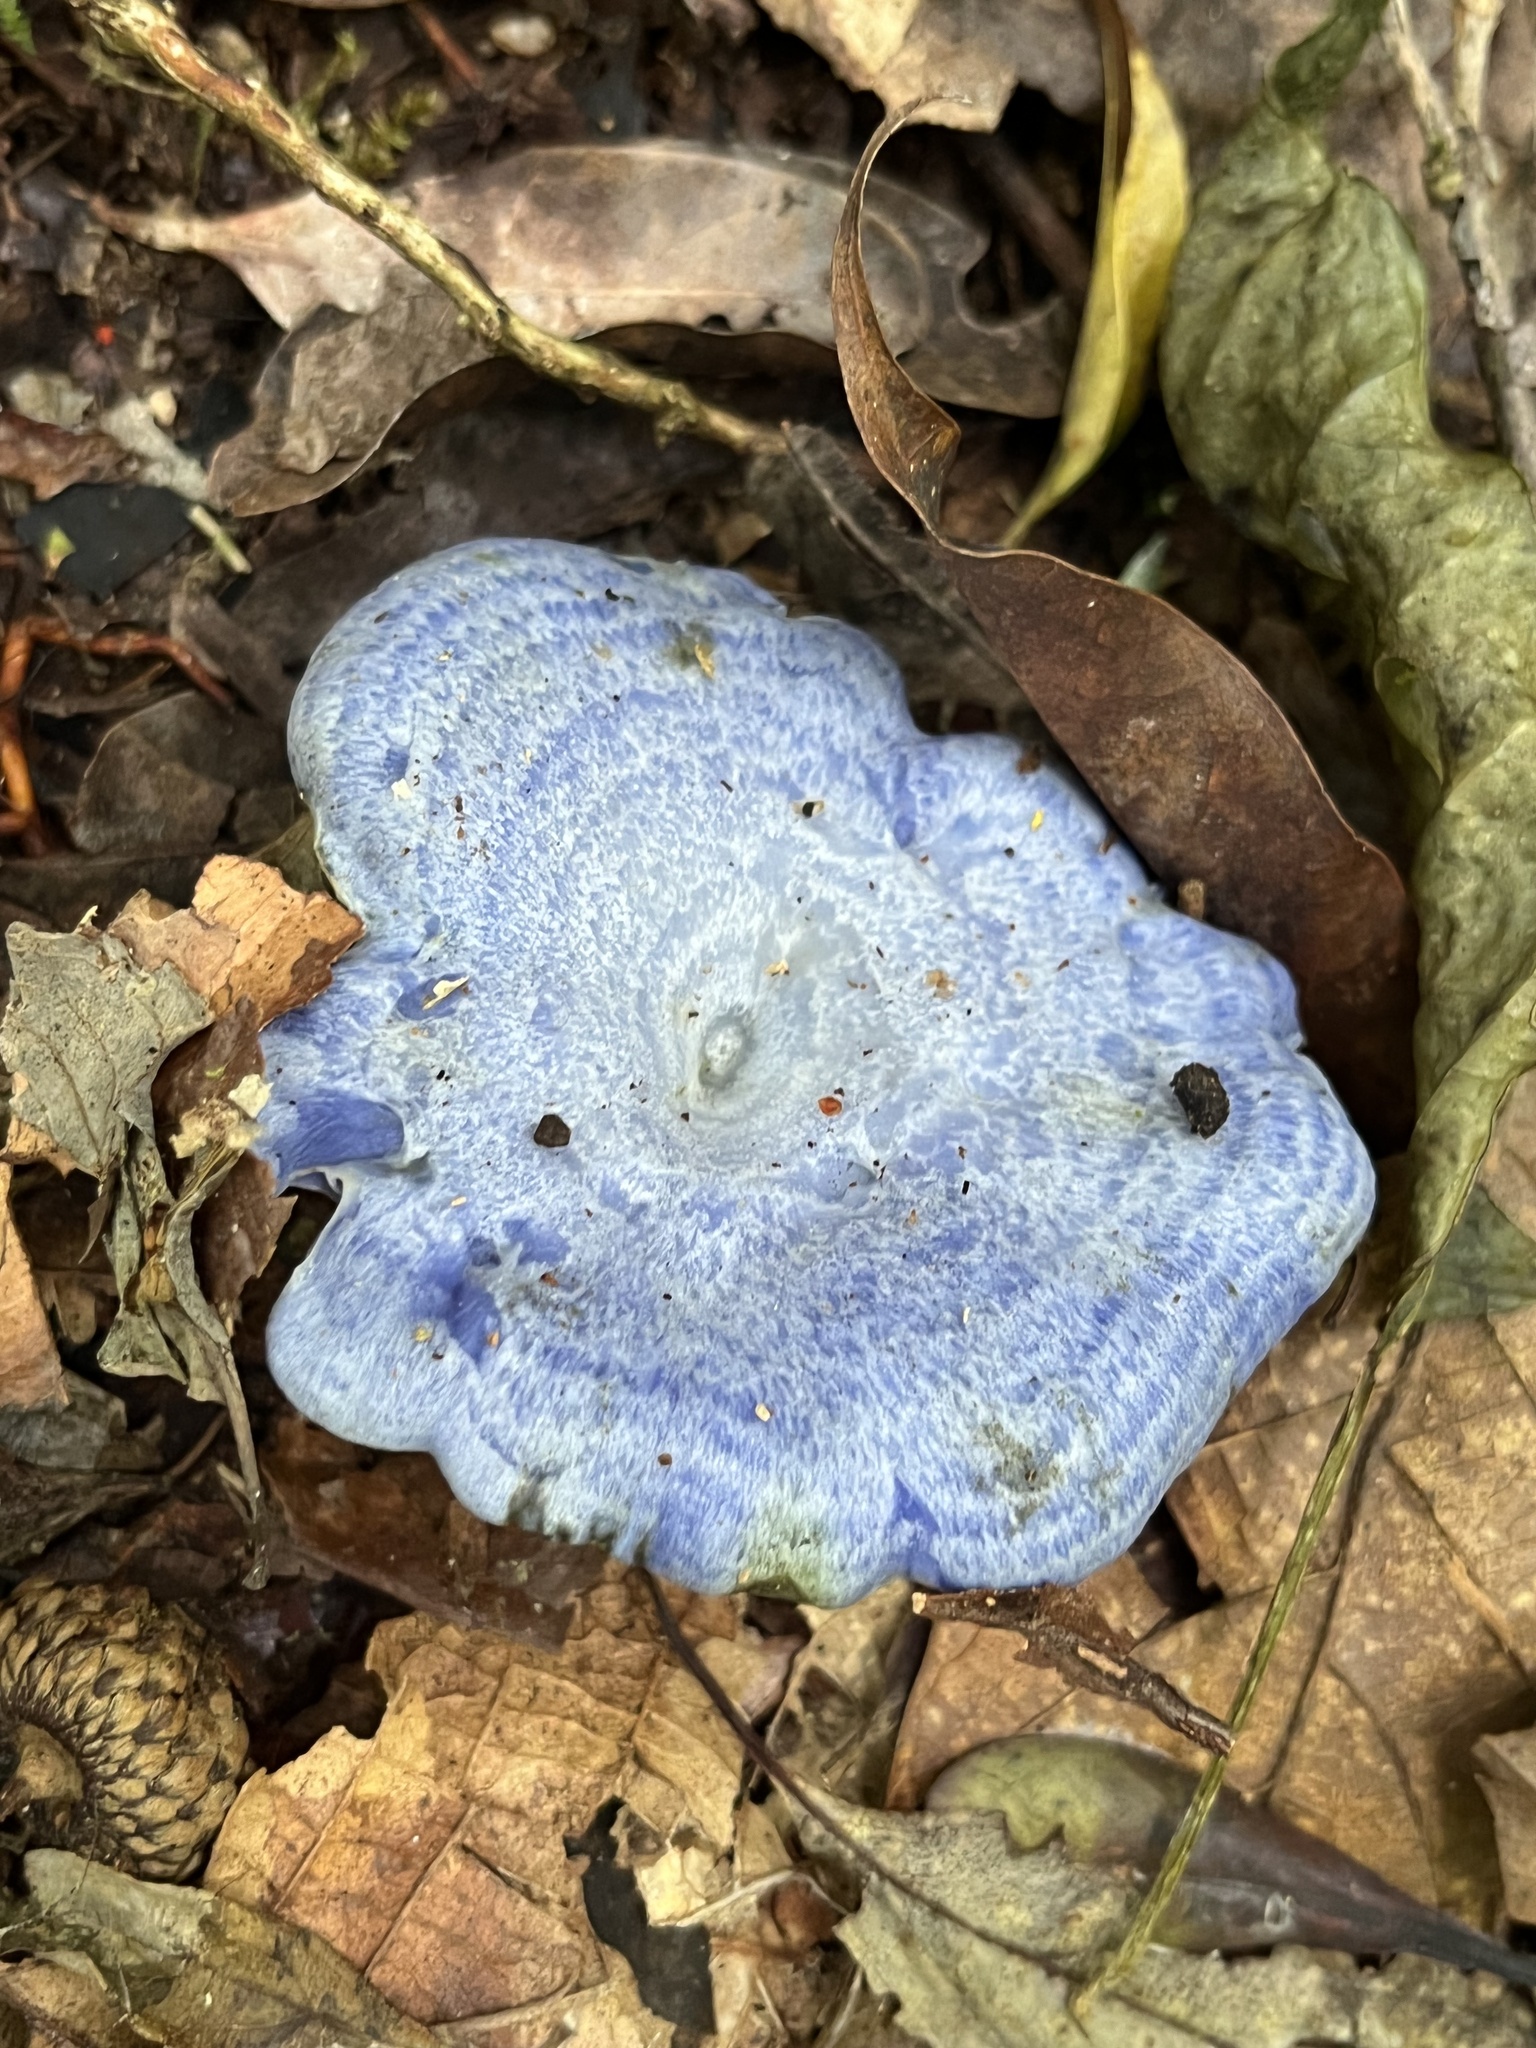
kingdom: Fungi
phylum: Basidiomycota
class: Agaricomycetes
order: Russulales
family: Russulaceae
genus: Lactarius
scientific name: Lactarius indigo
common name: Indigo milk cap
